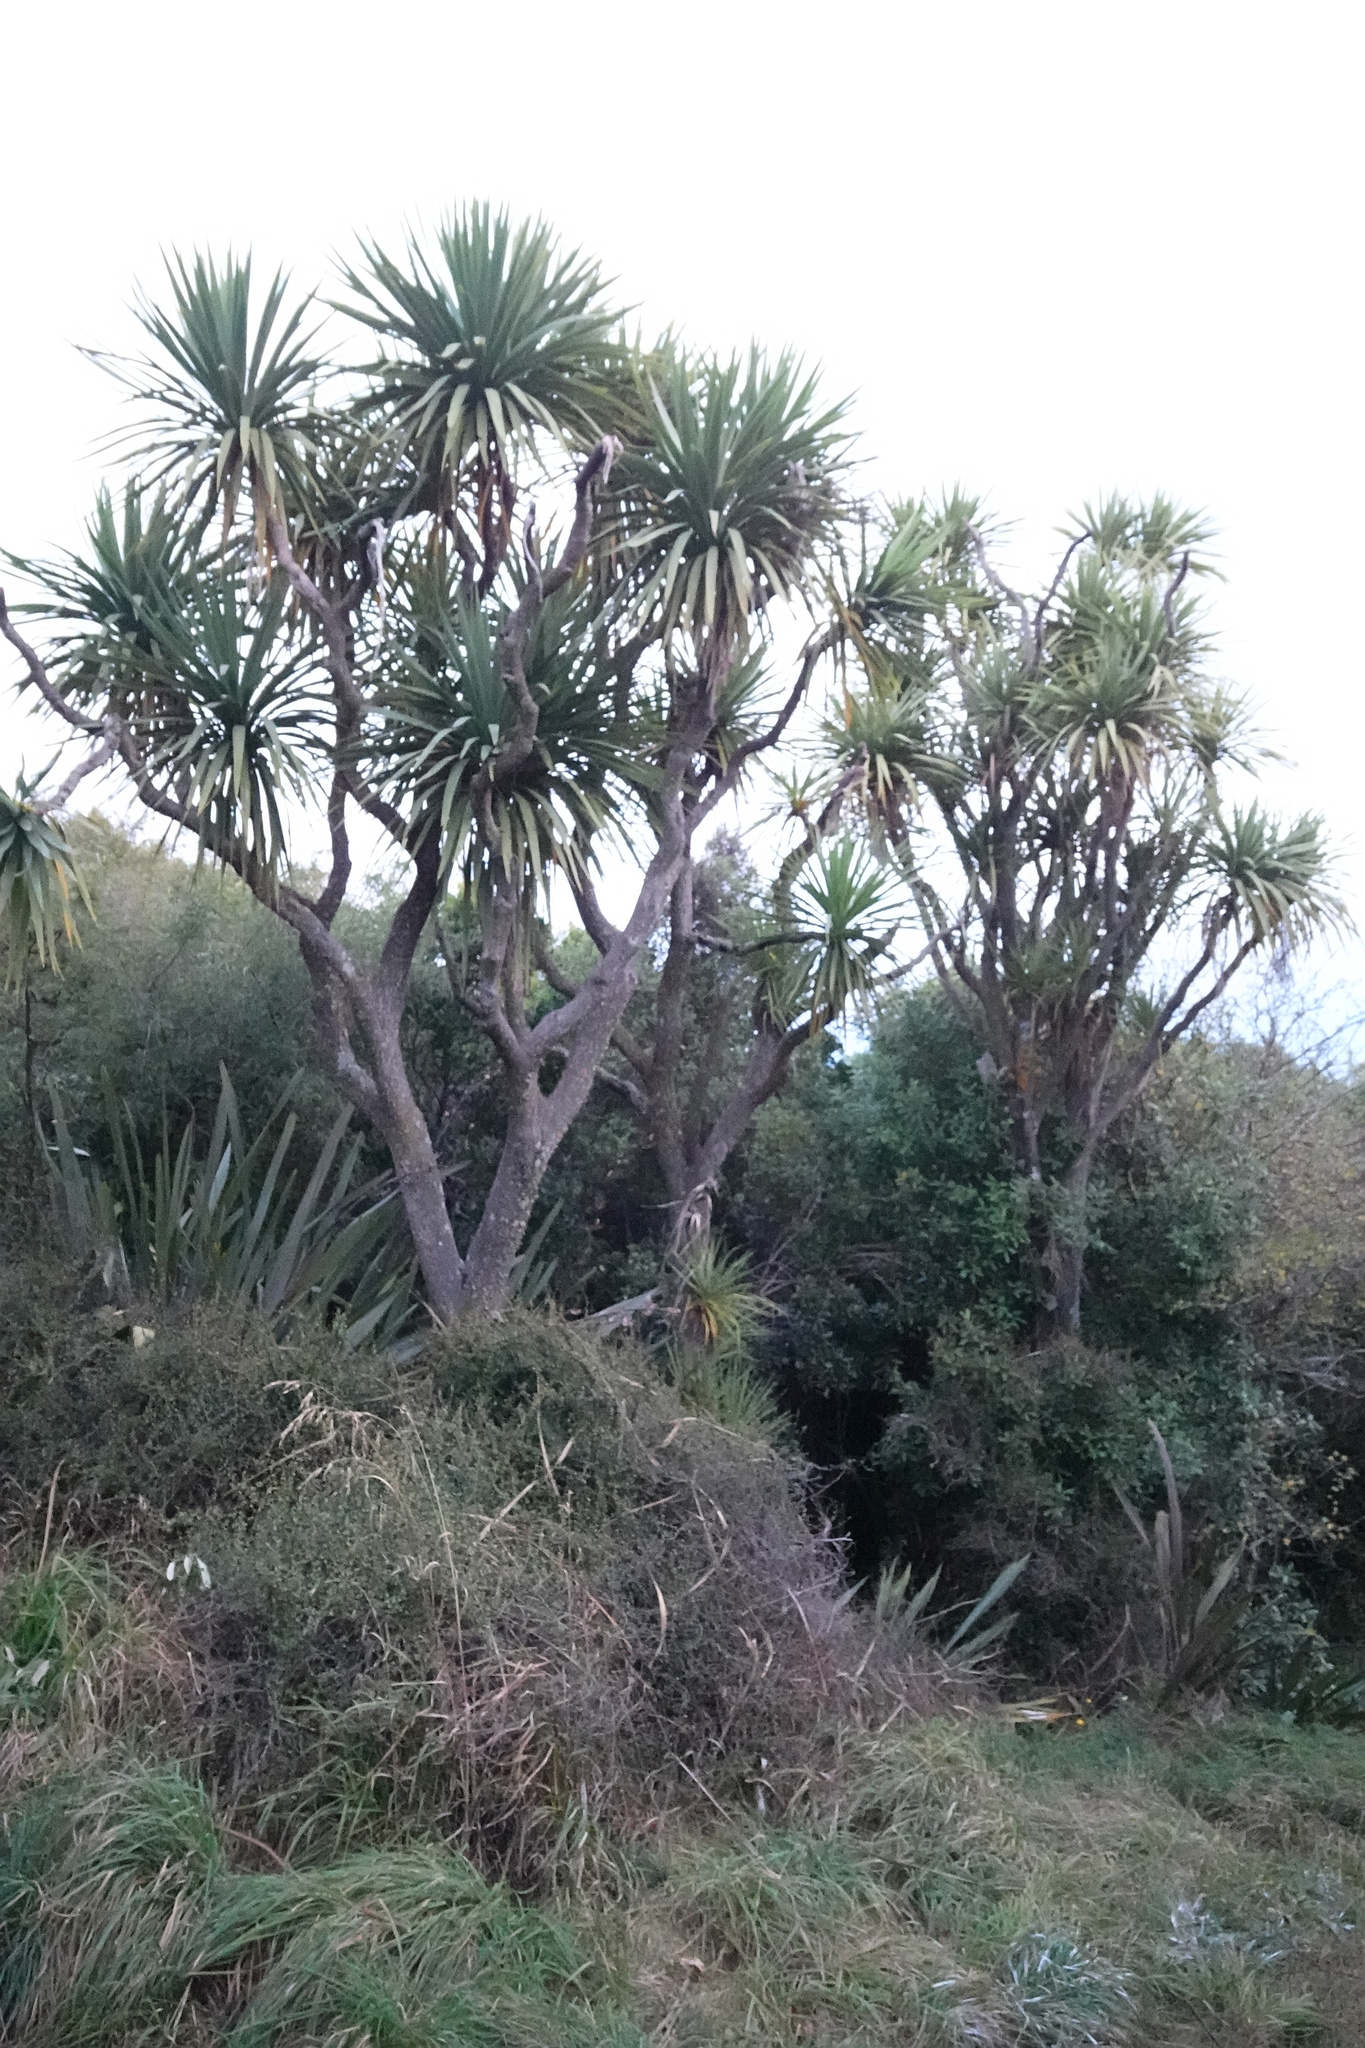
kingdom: Plantae
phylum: Tracheophyta
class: Liliopsida
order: Asparagales
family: Asparagaceae
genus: Cordyline
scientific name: Cordyline australis
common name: Cabbage-palm
